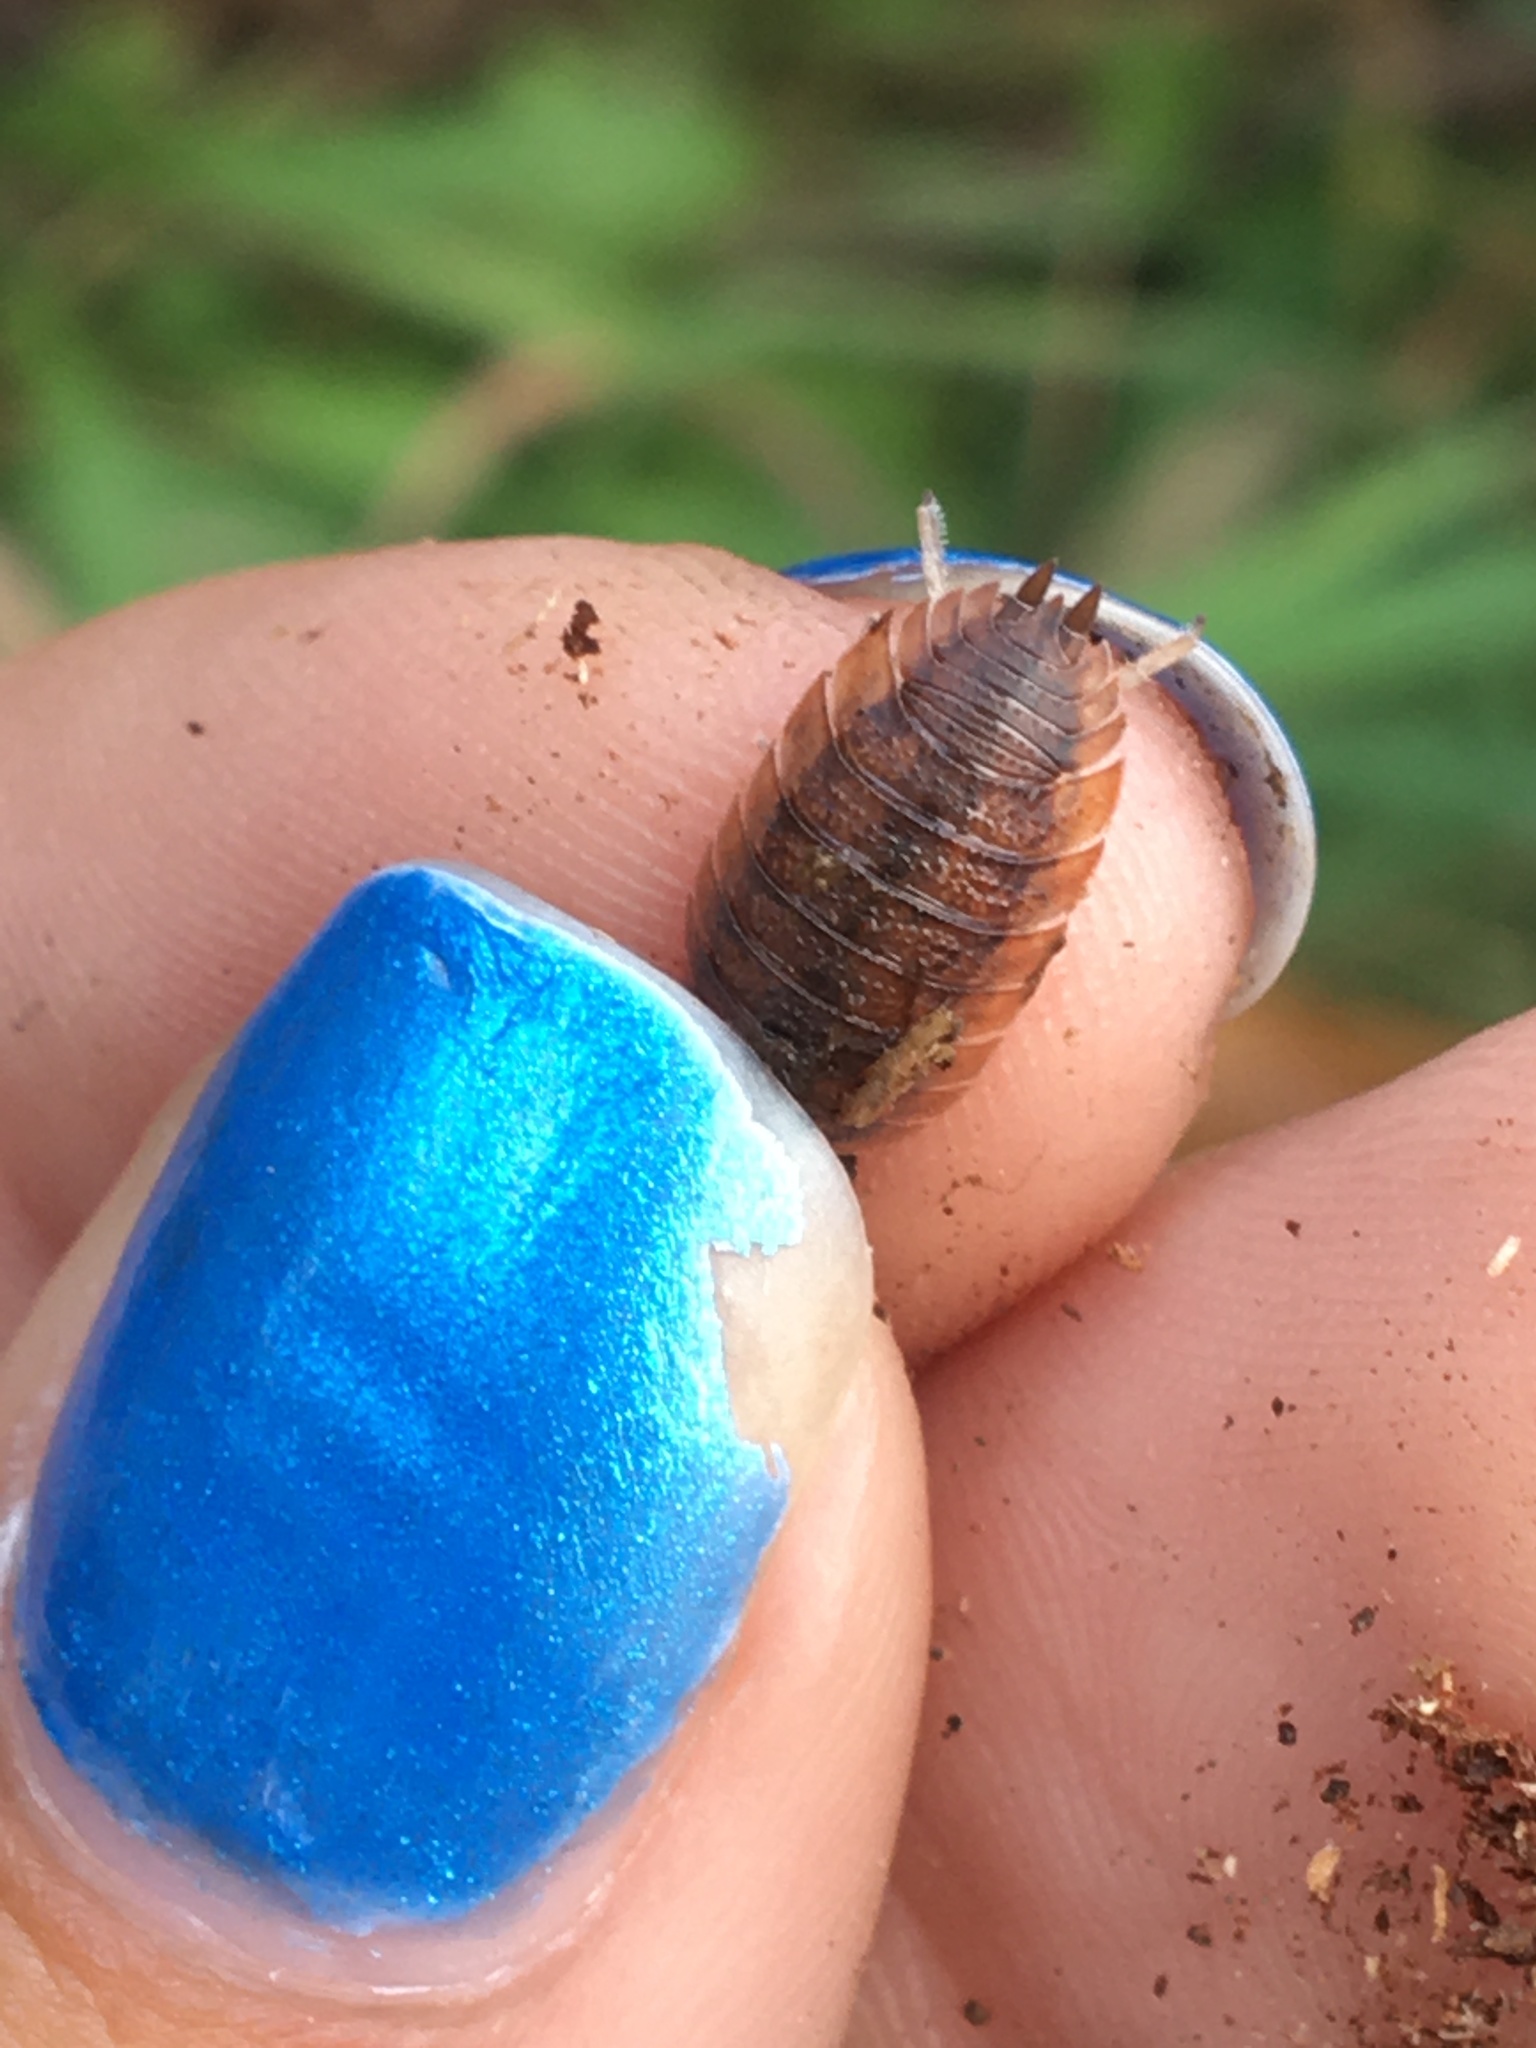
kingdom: Animalia
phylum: Arthropoda
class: Malacostraca
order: Isopoda
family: Porcellionidae
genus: Porcellio
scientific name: Porcellio scaber
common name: Common rough woodlouse
